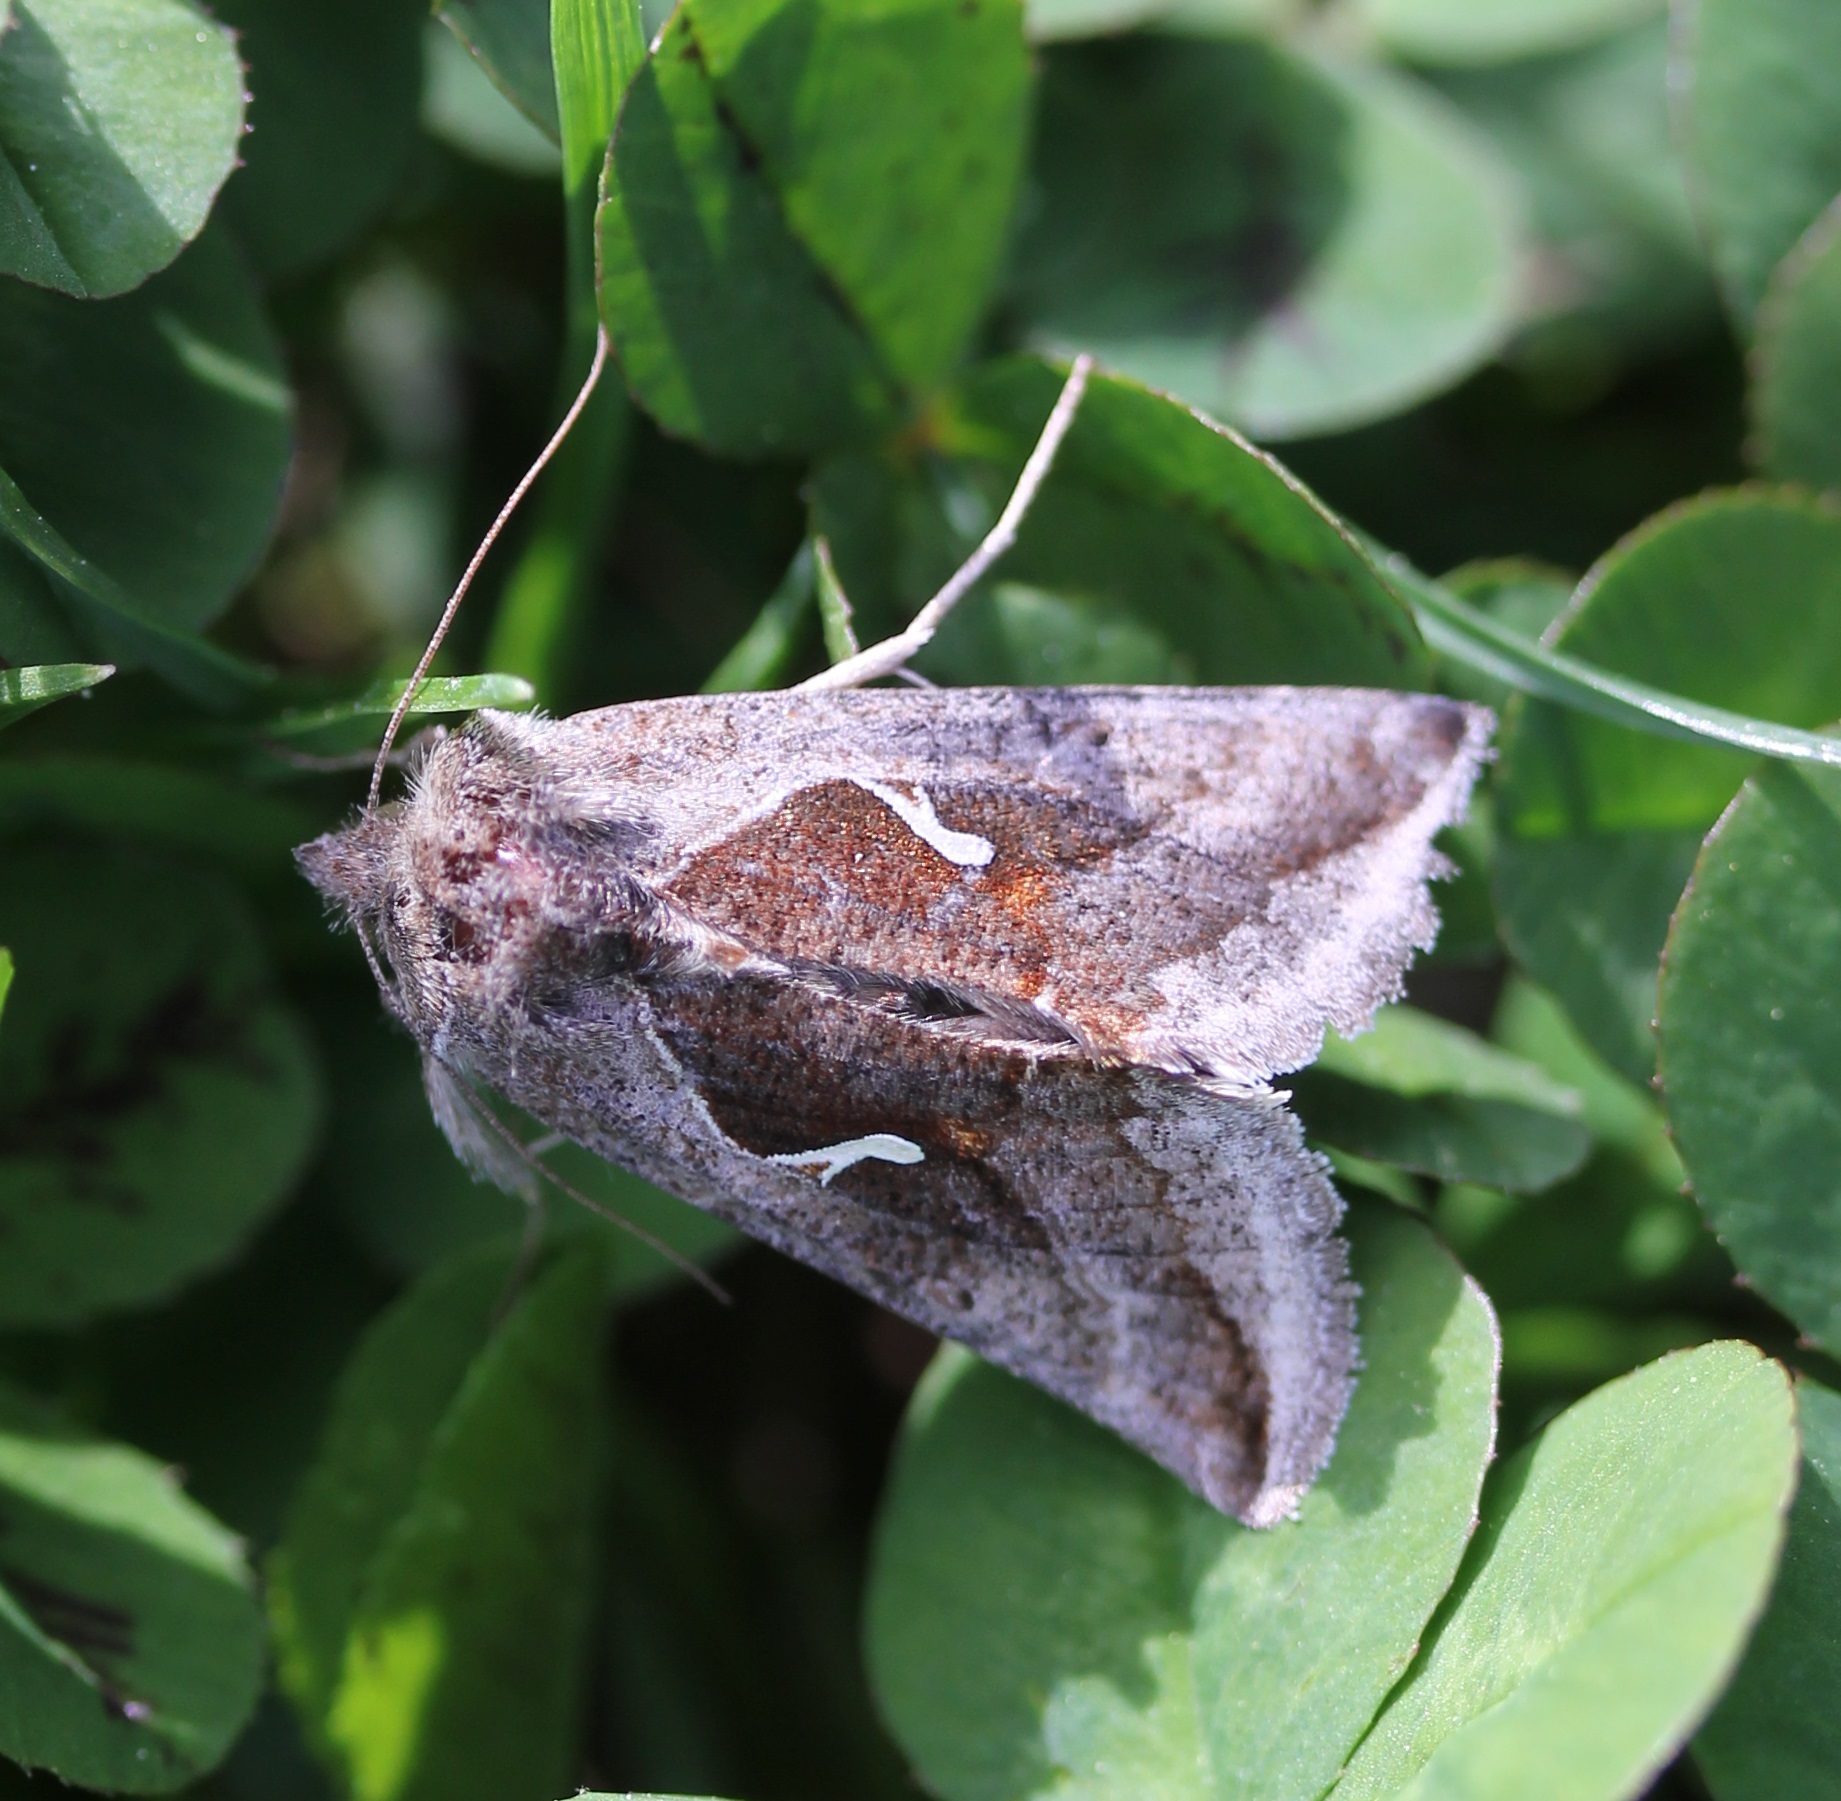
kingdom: Animalia
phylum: Arthropoda
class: Insecta
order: Lepidoptera
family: Noctuidae
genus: Anagrapha
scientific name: Anagrapha falcifera
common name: Celery looper
